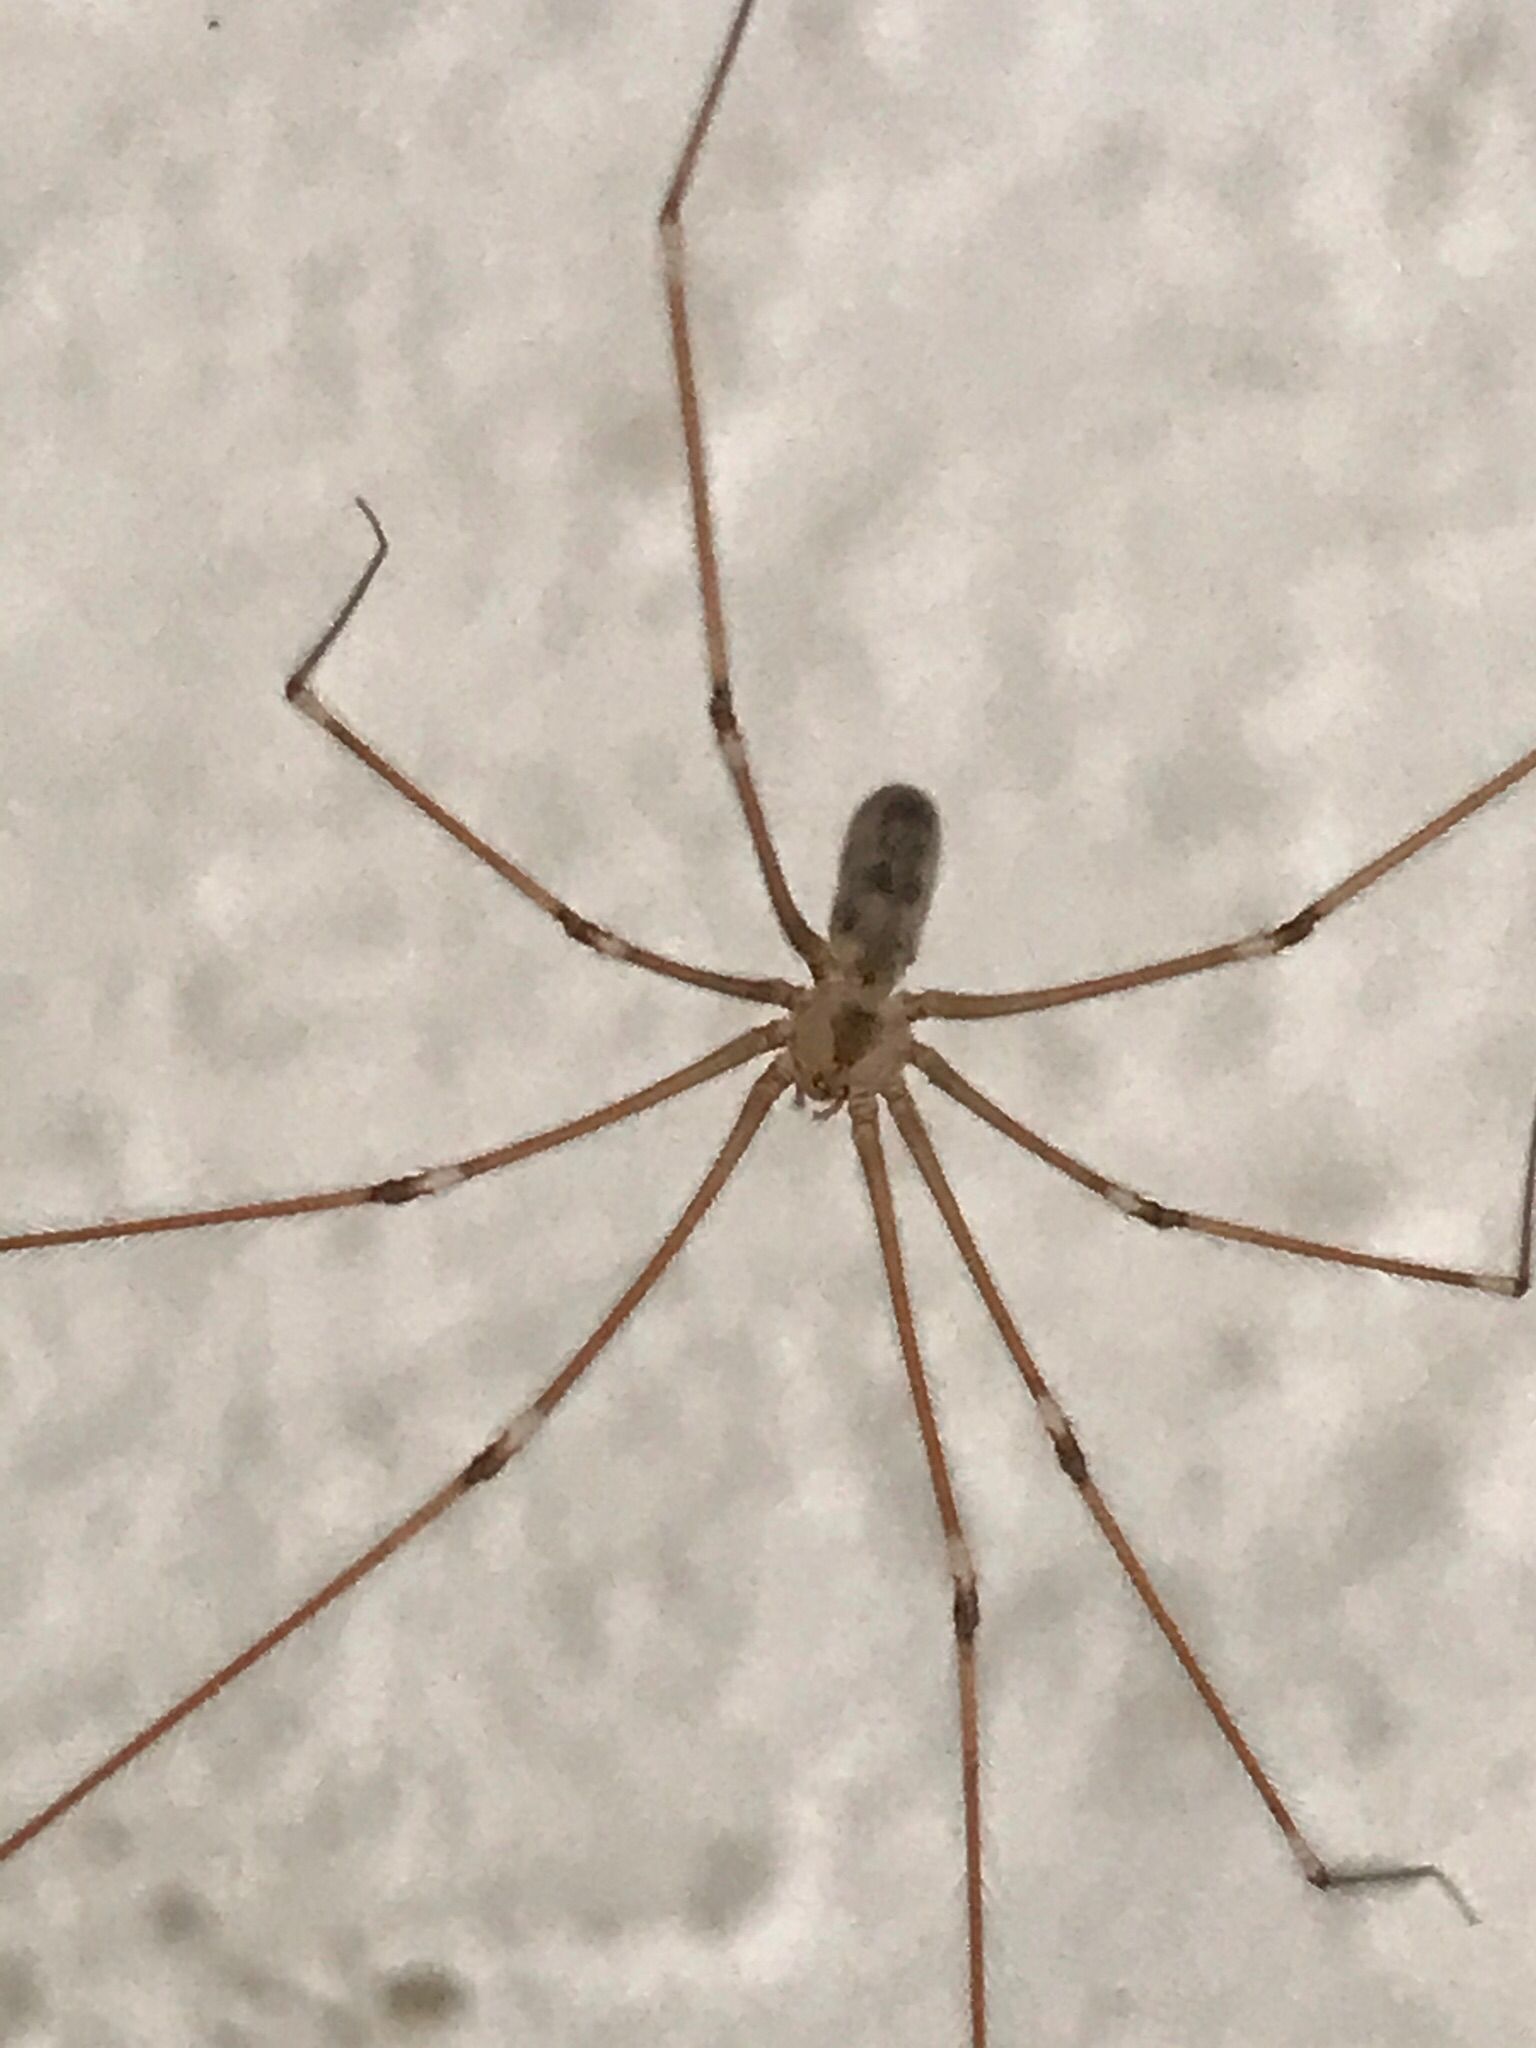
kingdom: Animalia
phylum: Arthropoda
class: Arachnida
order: Araneae
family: Pholcidae
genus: Pholcus
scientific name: Pholcus phalangioides
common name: Longbodied cellar spider
